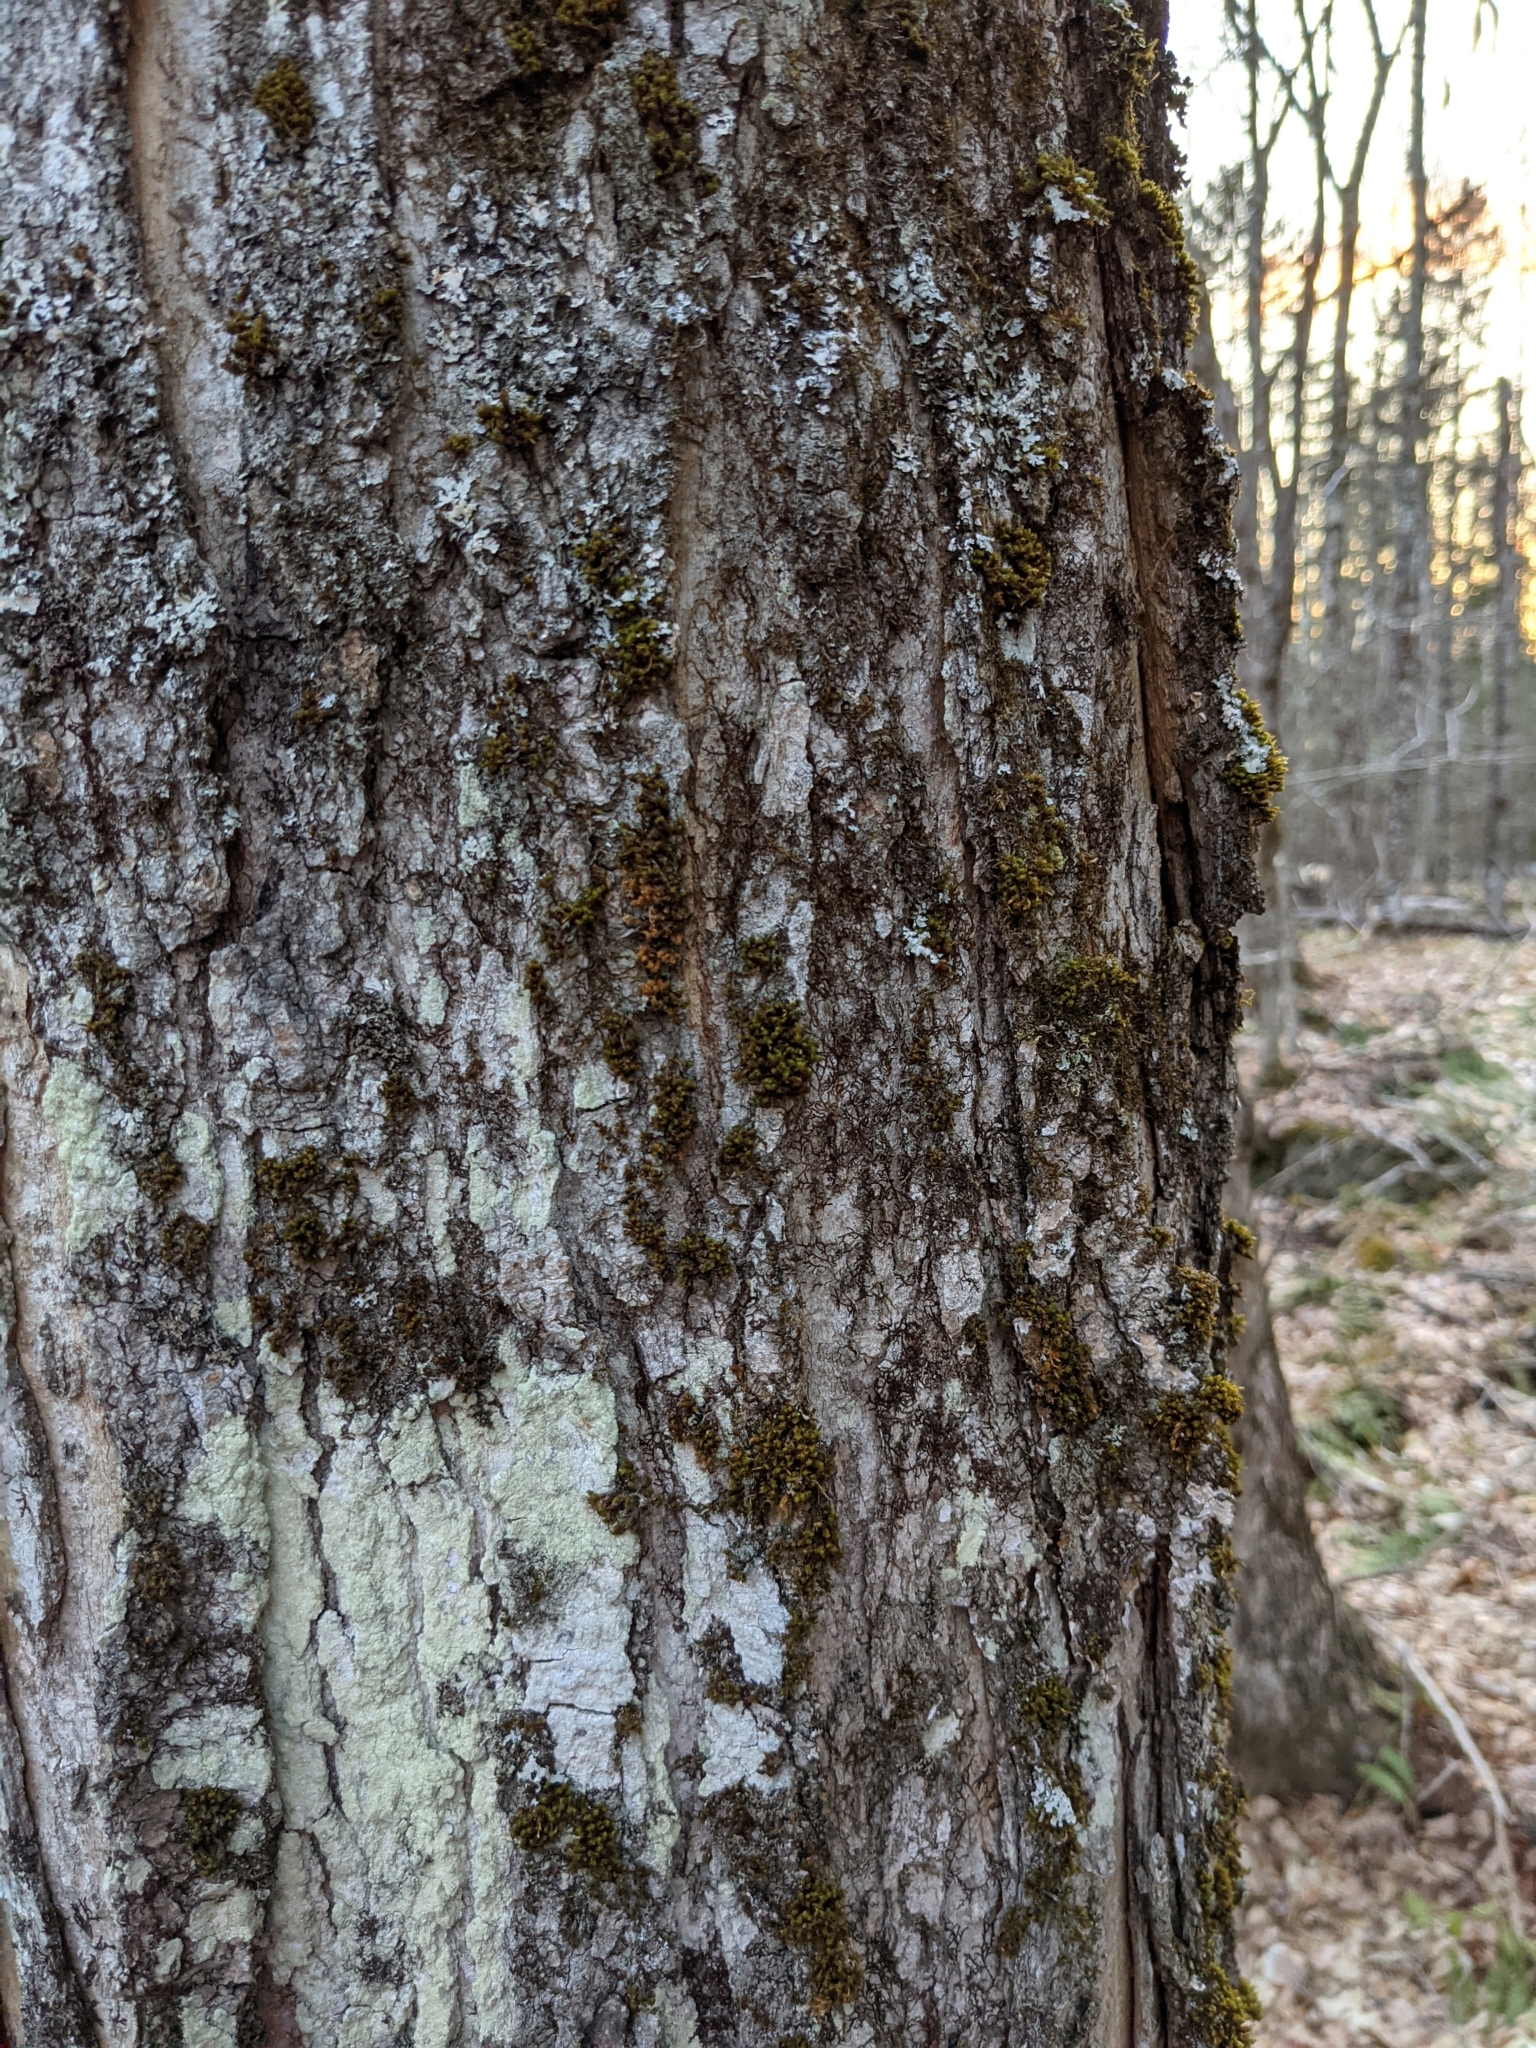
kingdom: Plantae
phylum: Bryophyta
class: Bryopsida
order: Orthotrichales
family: Orthotrichaceae
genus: Ulota
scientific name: Ulota crispa
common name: Crisped pincushion moss
